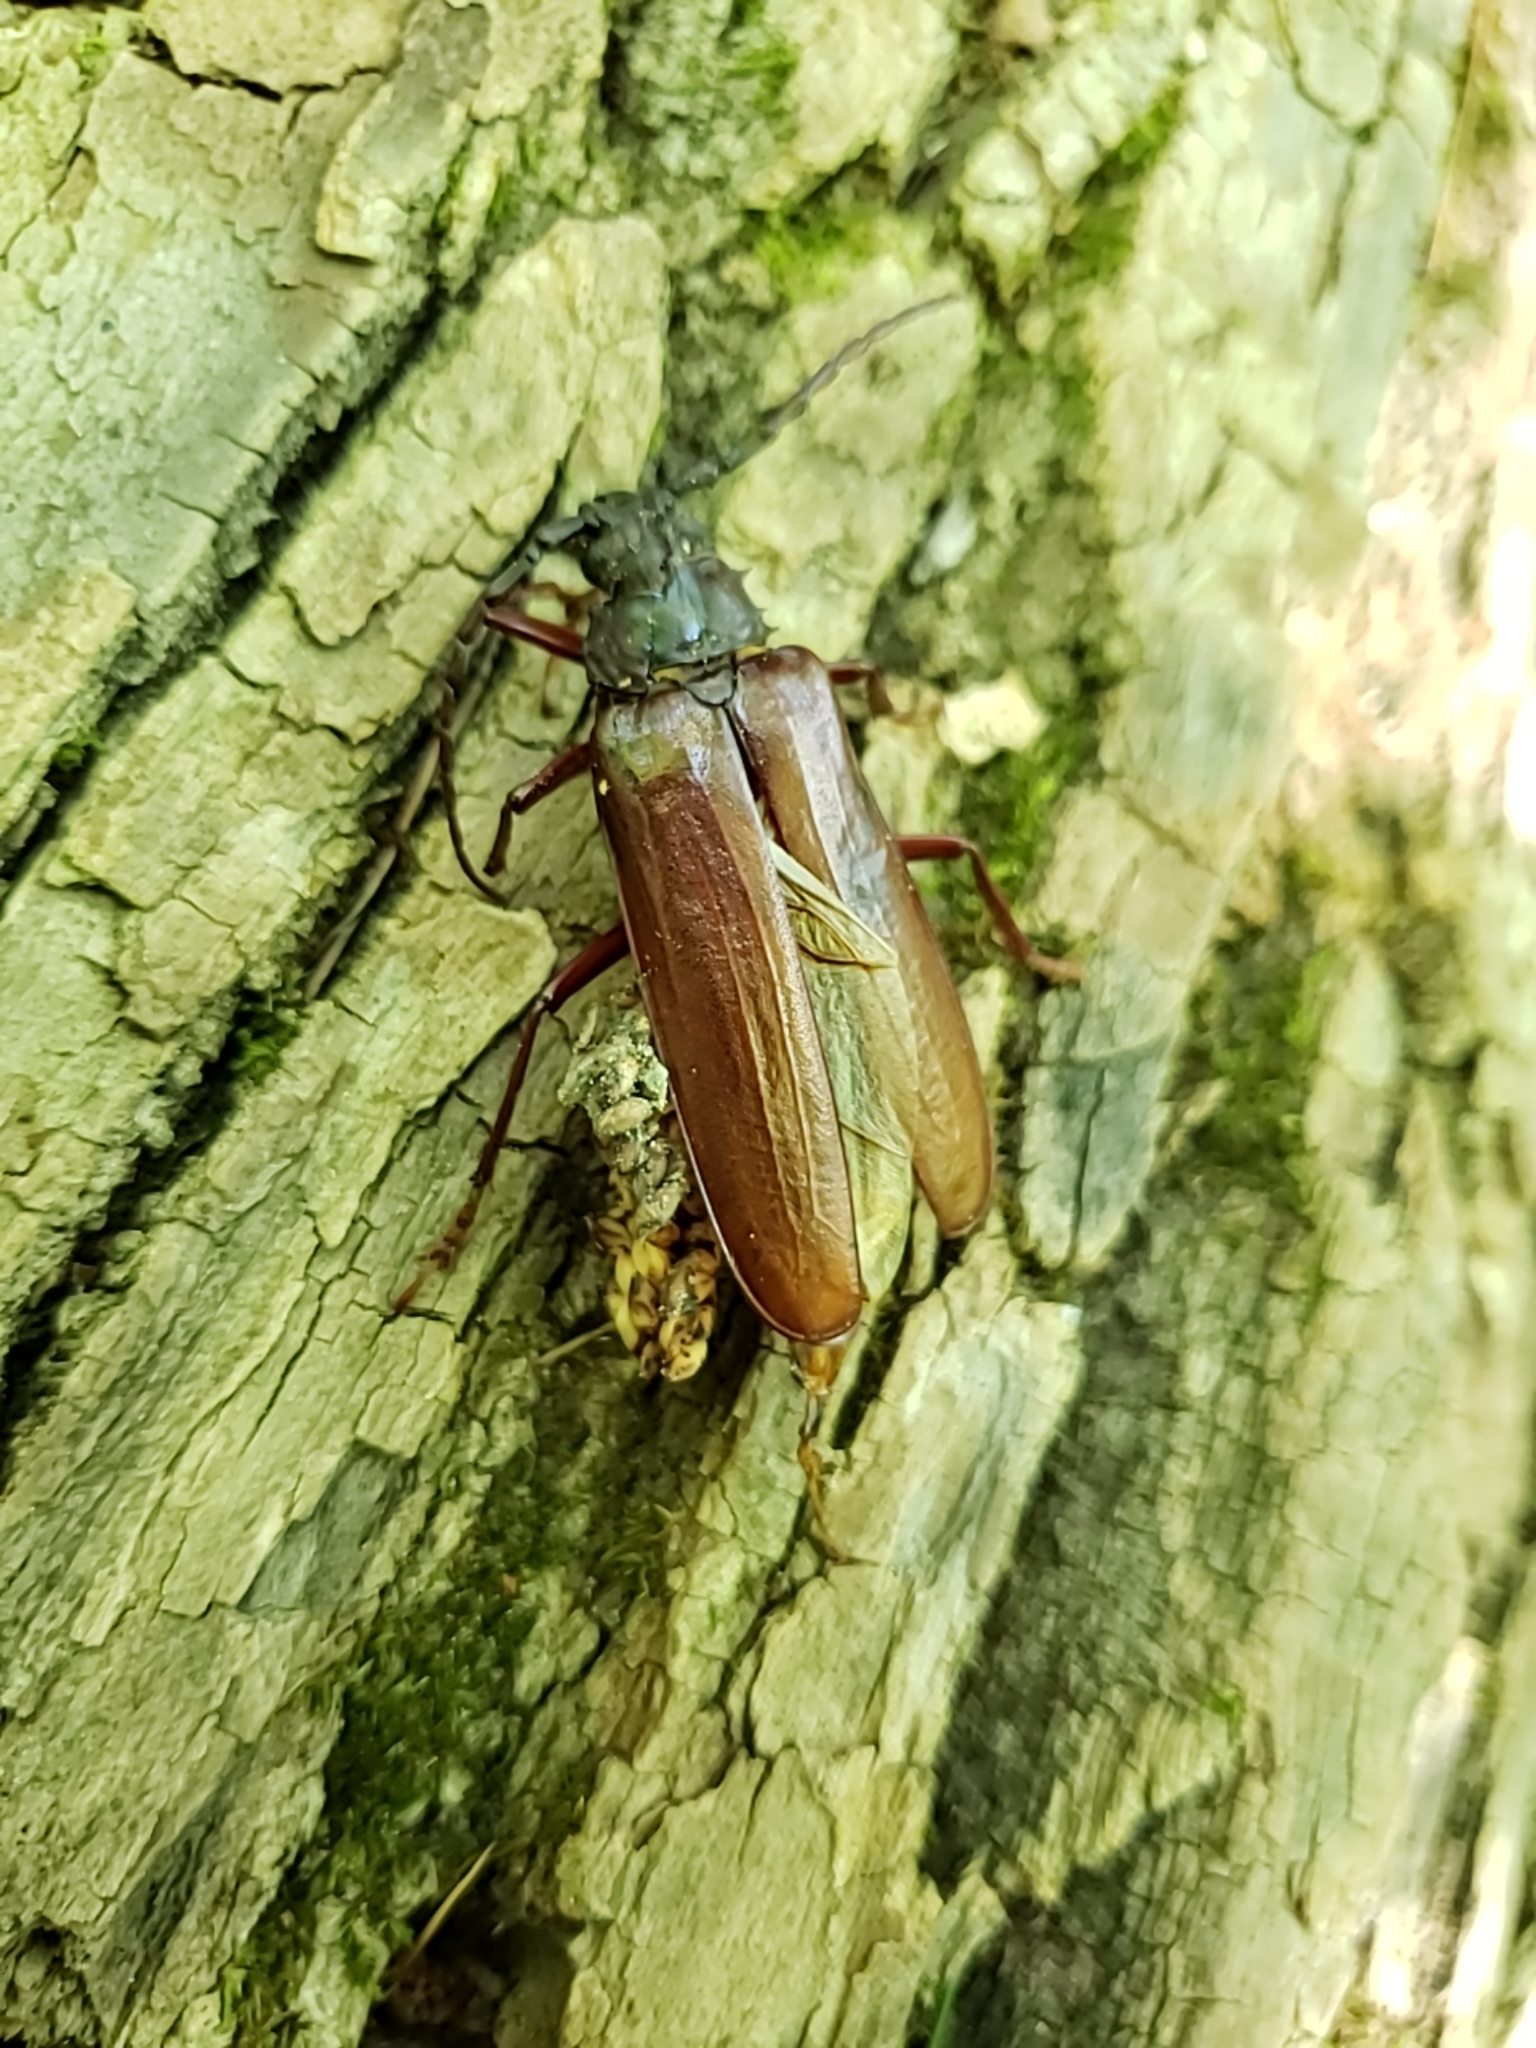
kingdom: Animalia
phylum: Arthropoda
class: Insecta
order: Coleoptera
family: Cerambycidae
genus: Orthosoma
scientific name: Orthosoma brunneum
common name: Brown prionid beetle
